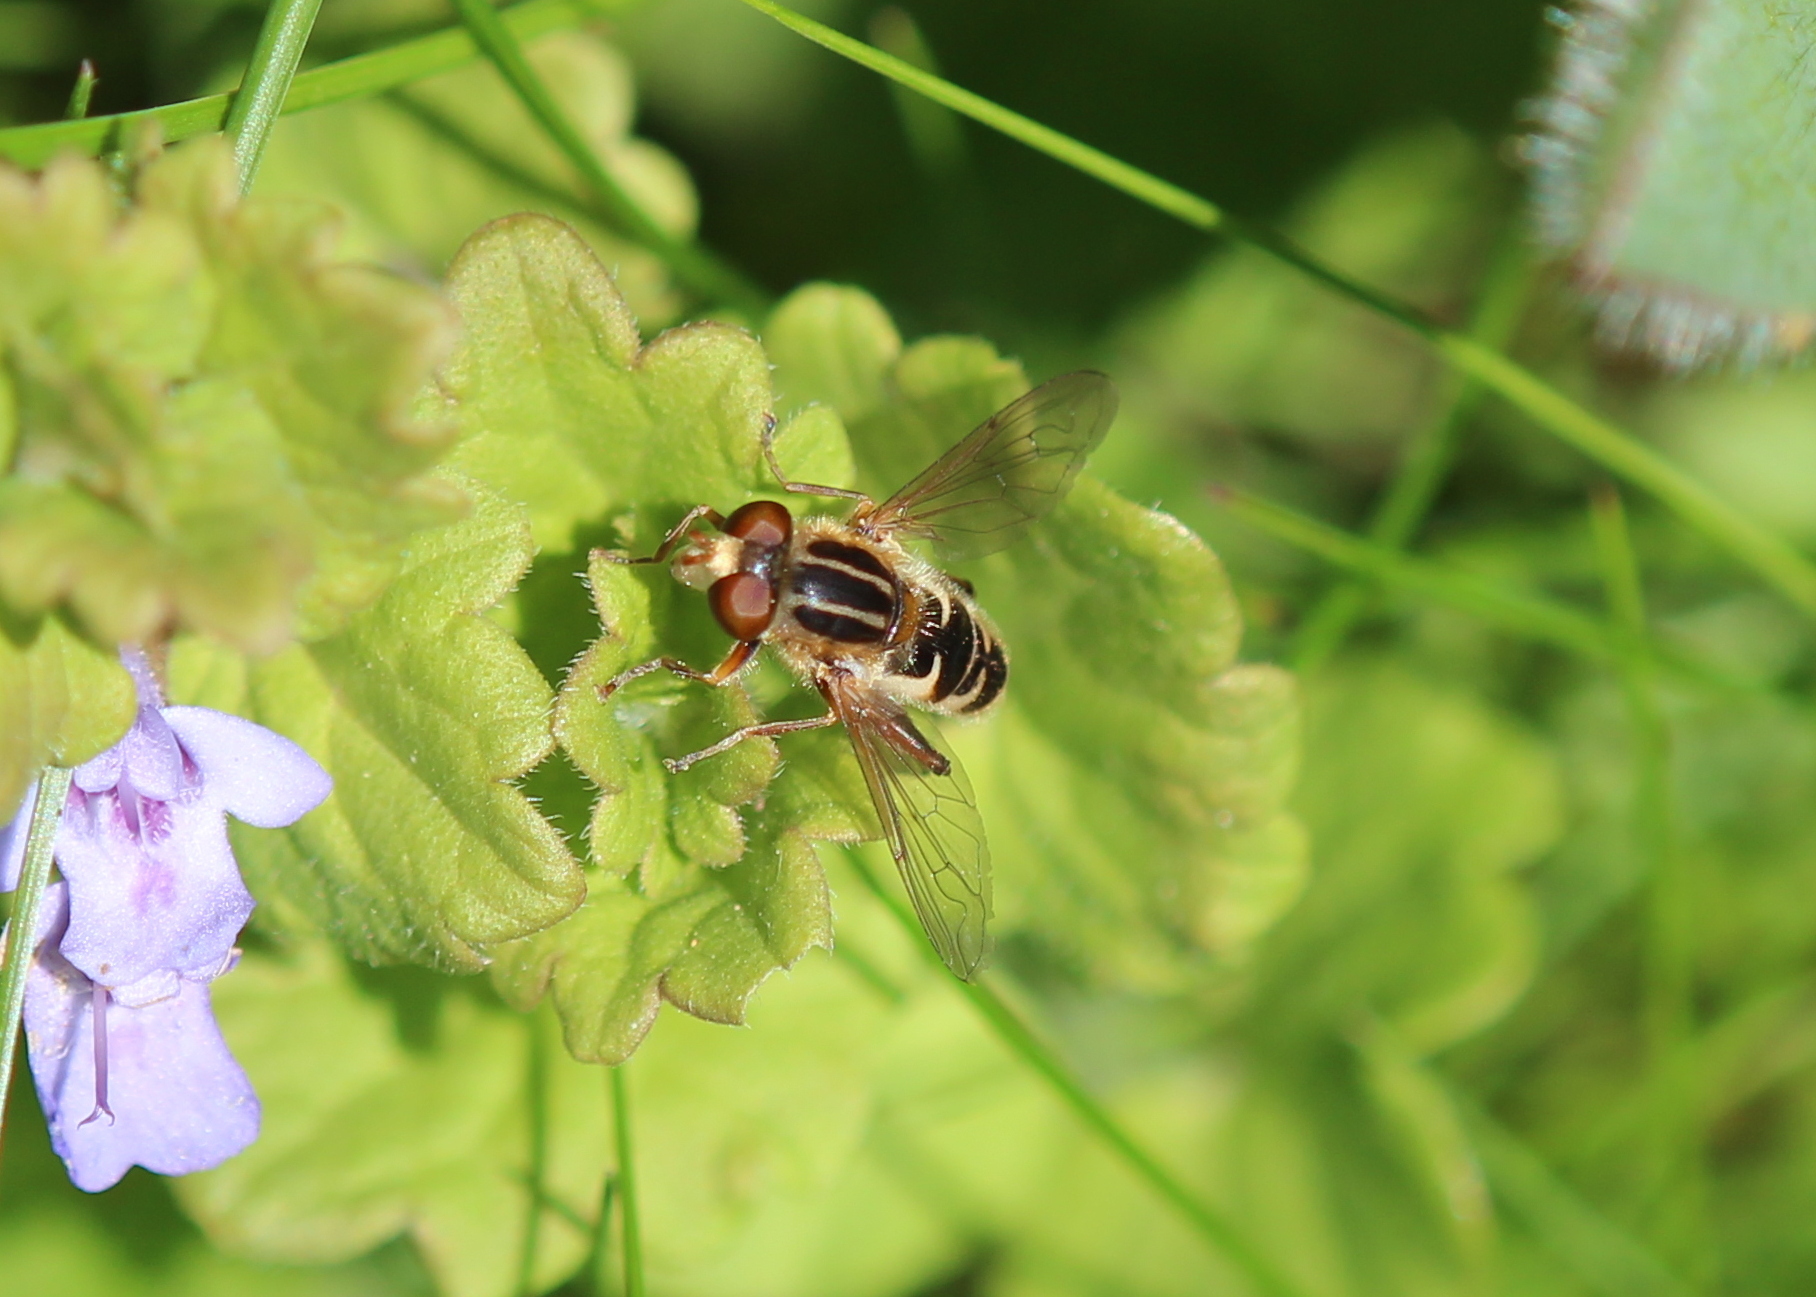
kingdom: Animalia
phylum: Arthropoda
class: Insecta
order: Diptera
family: Syrphidae
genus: Anasimyia
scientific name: Anasimyia
